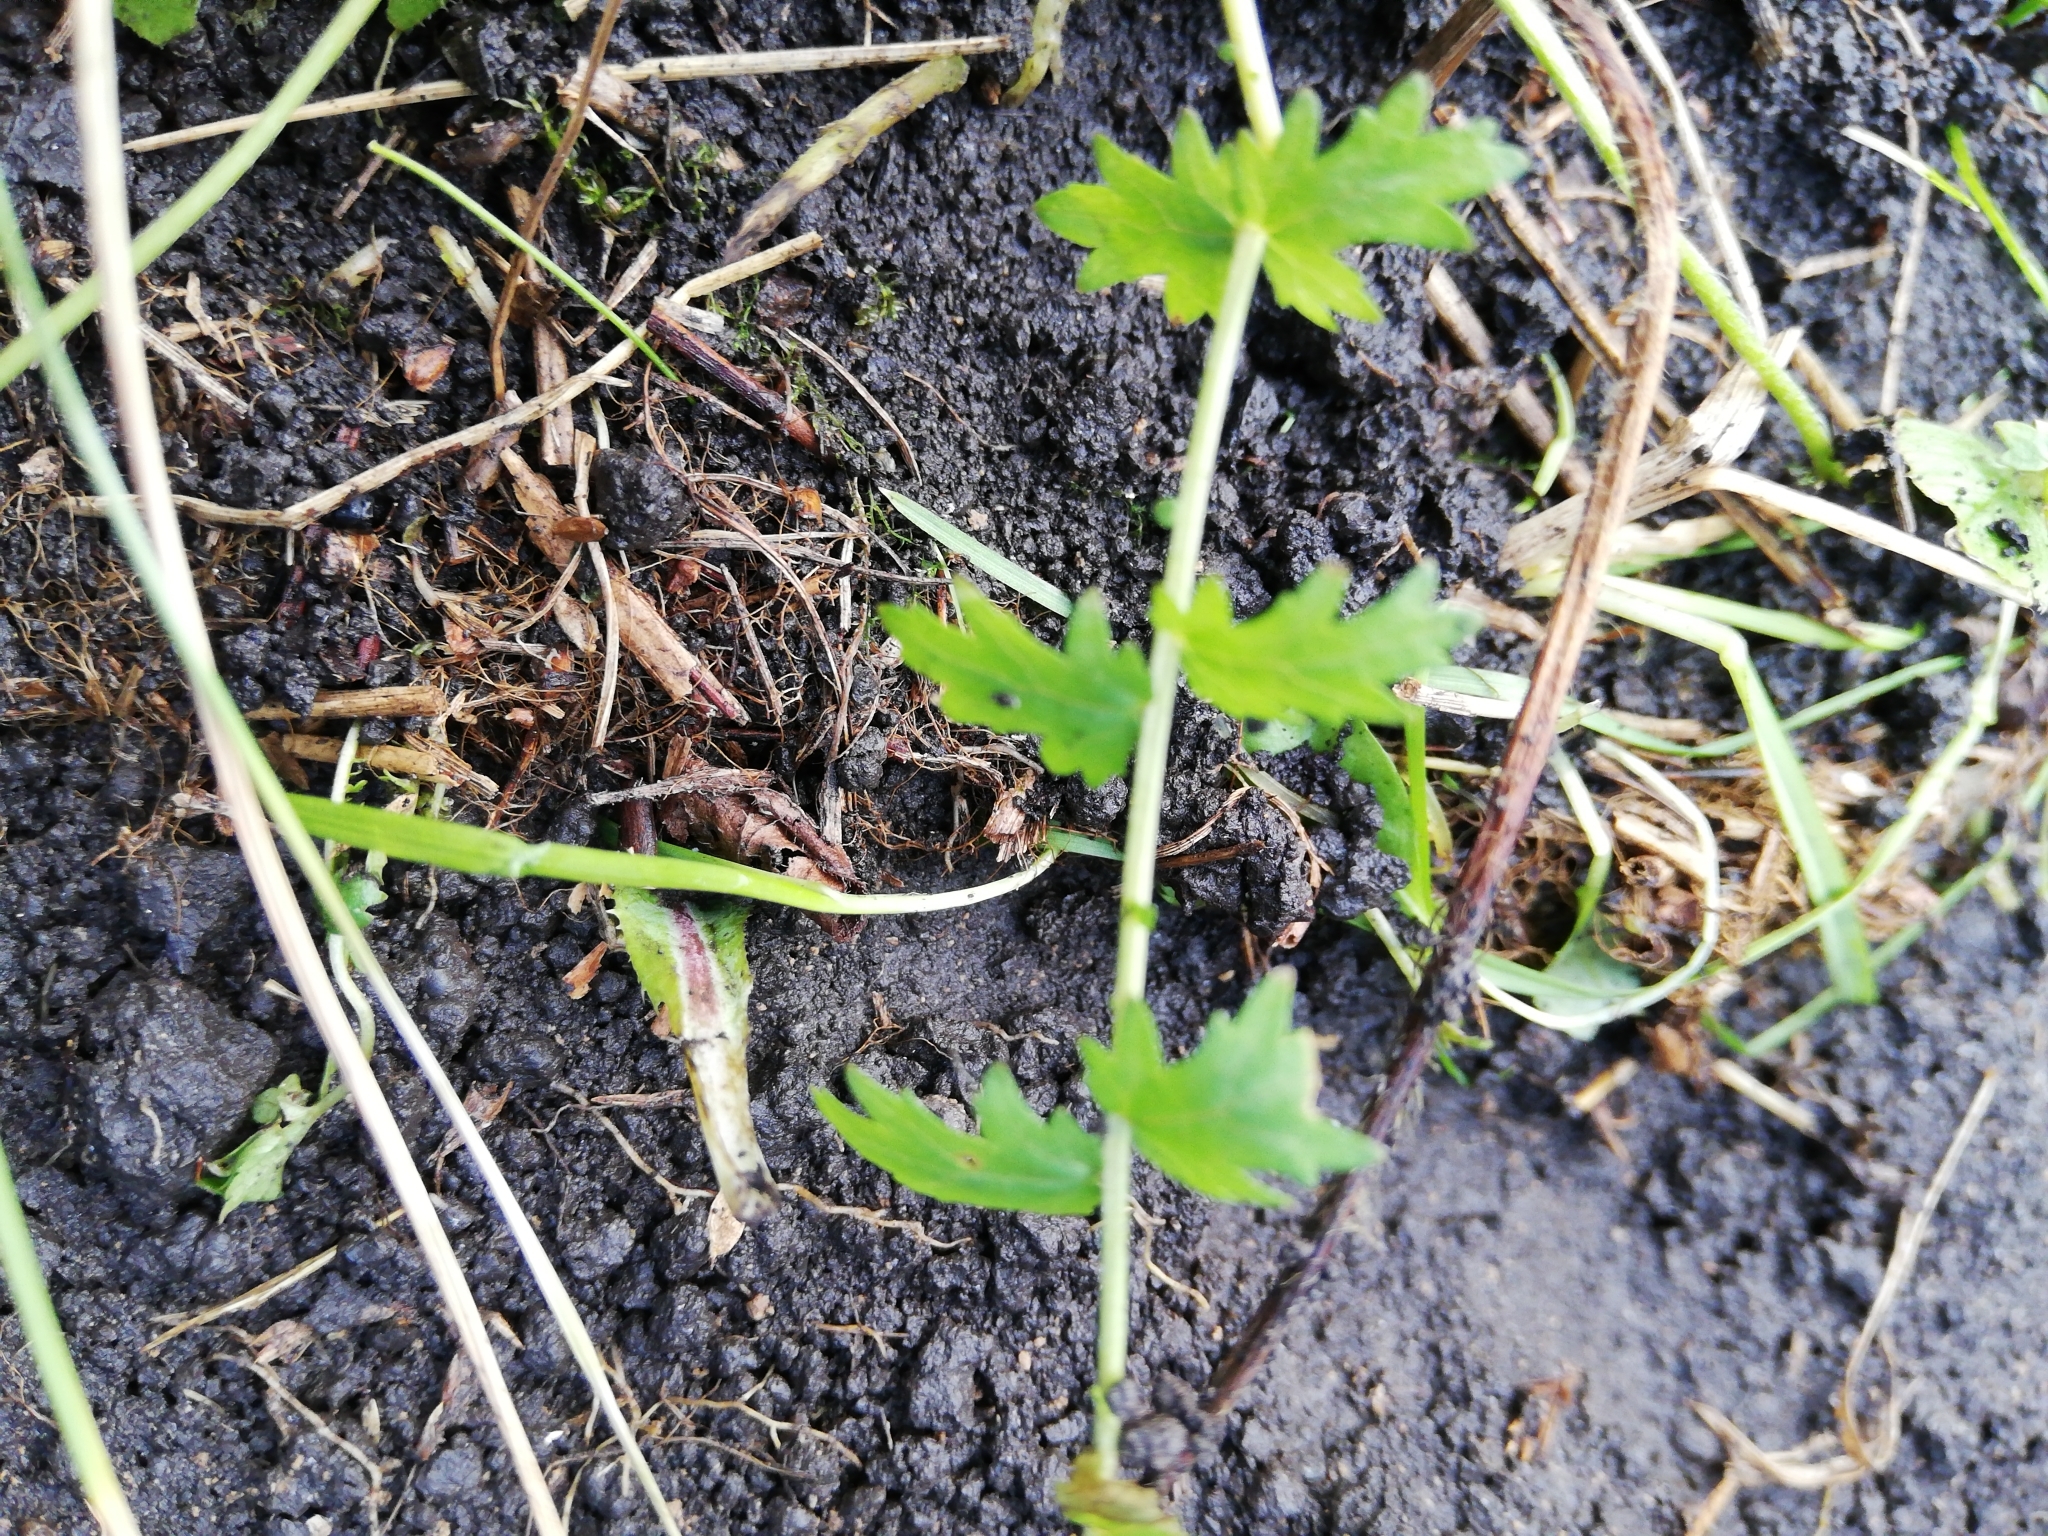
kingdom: Plantae
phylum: Tracheophyta
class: Magnoliopsida
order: Rosales
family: Rosaceae
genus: Filipendula
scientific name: Filipendula vulgaris
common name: Dropwort
